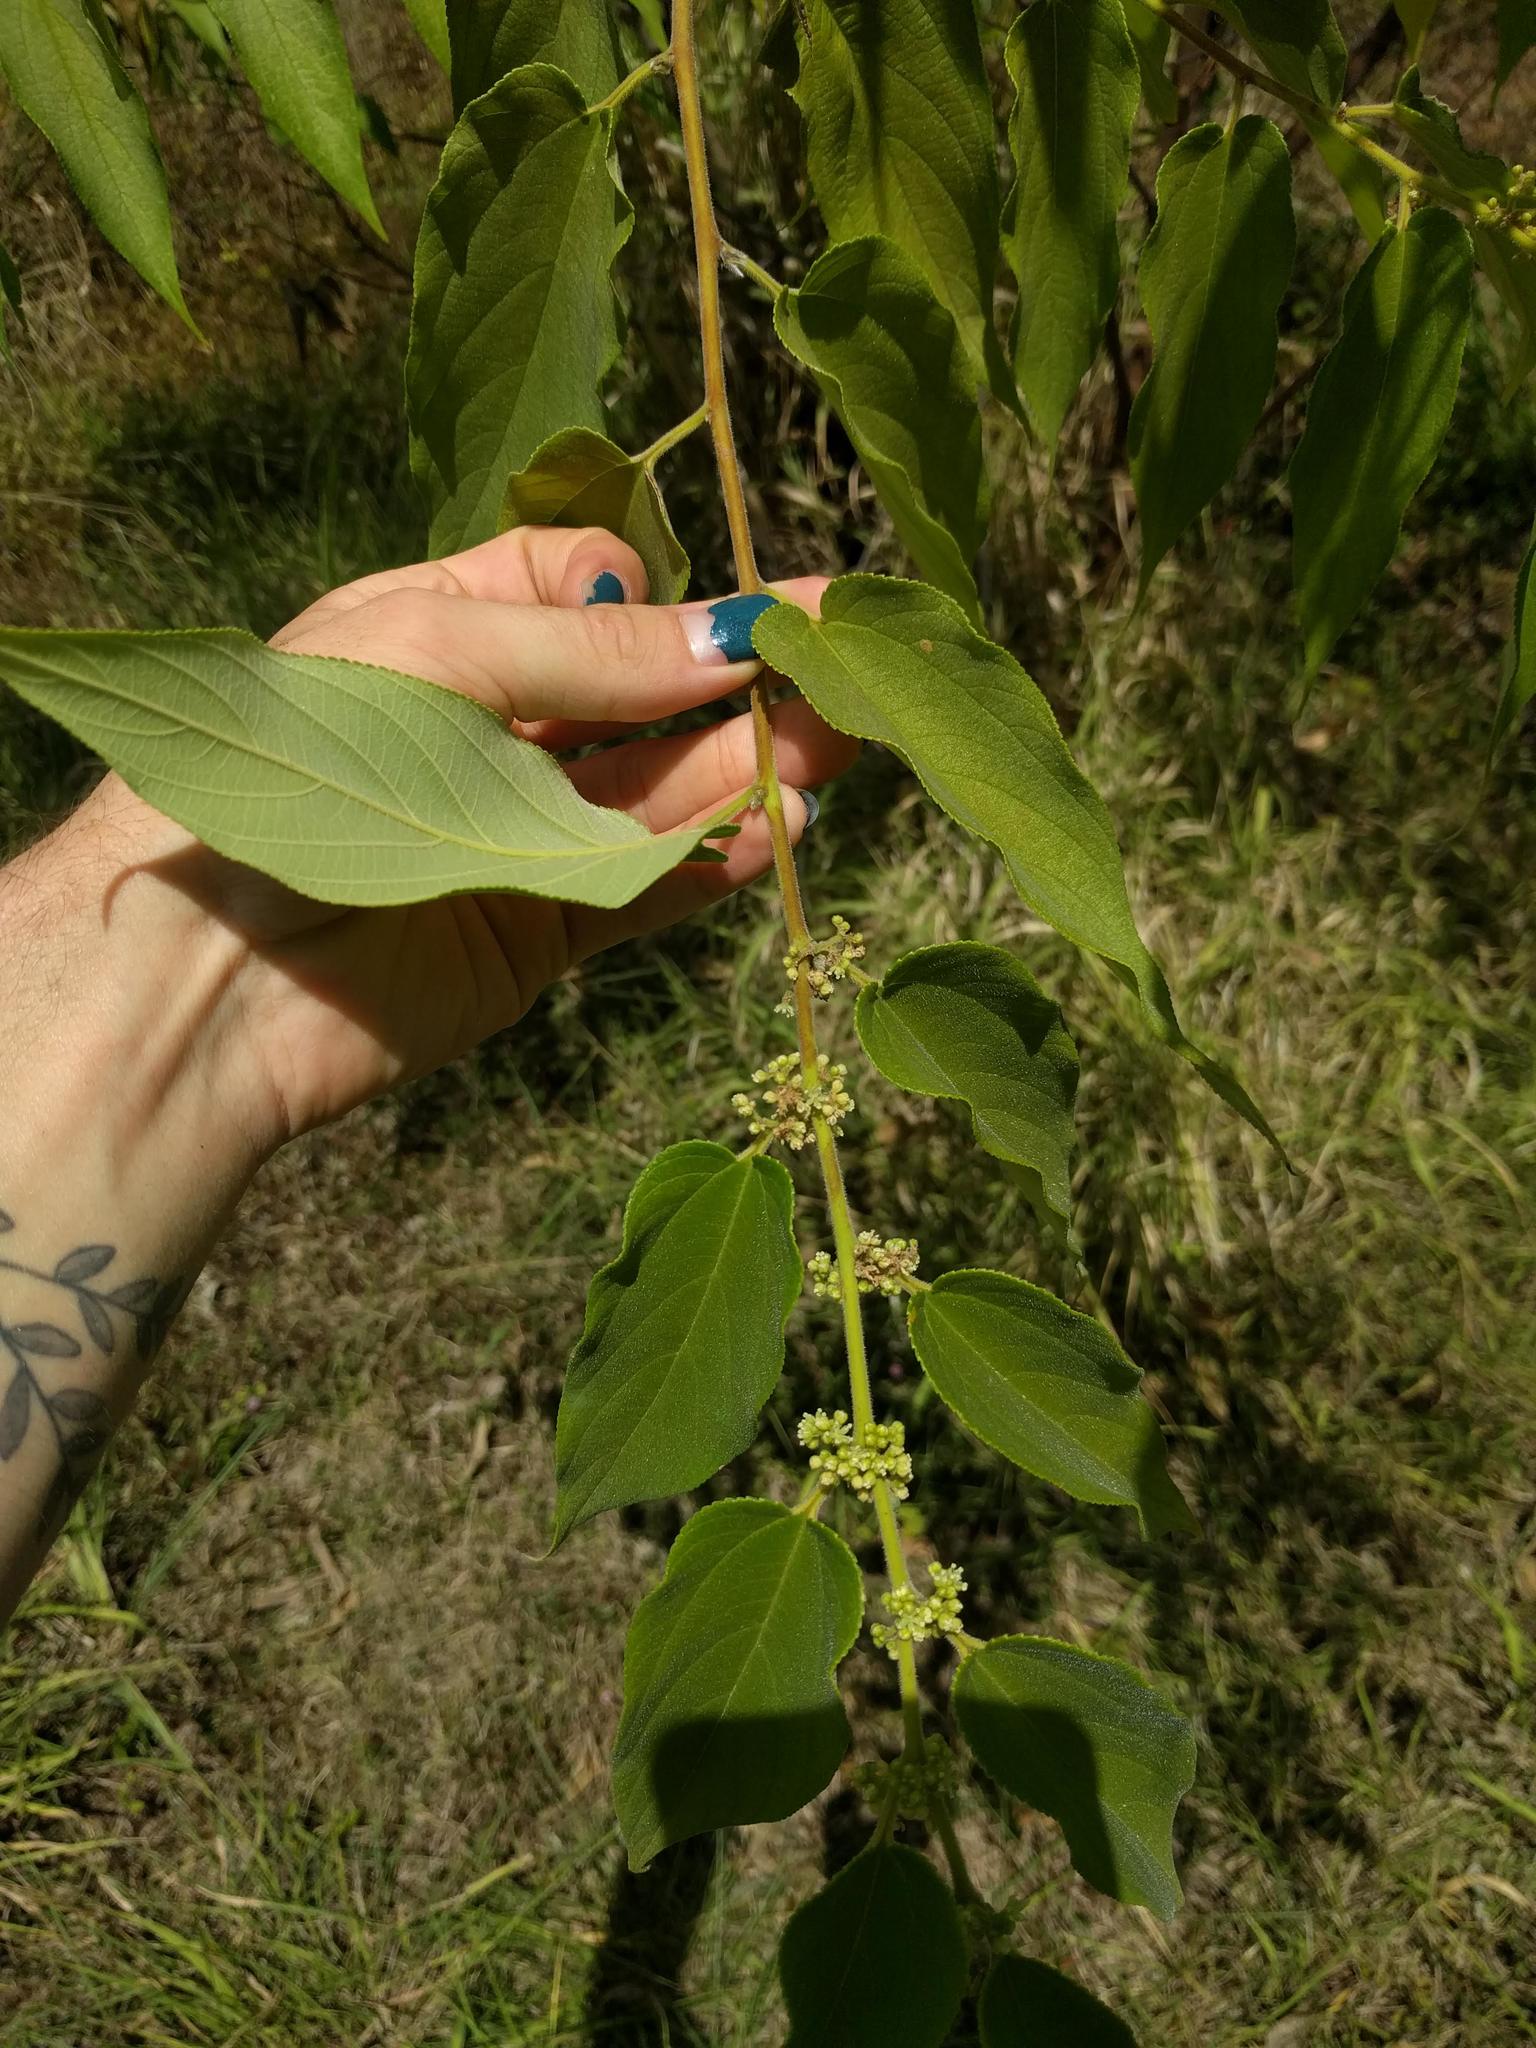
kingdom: Plantae
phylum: Tracheophyta
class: Magnoliopsida
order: Rosales
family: Cannabaceae
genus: Trema
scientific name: Trema orientale
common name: Indian charcoal tree
